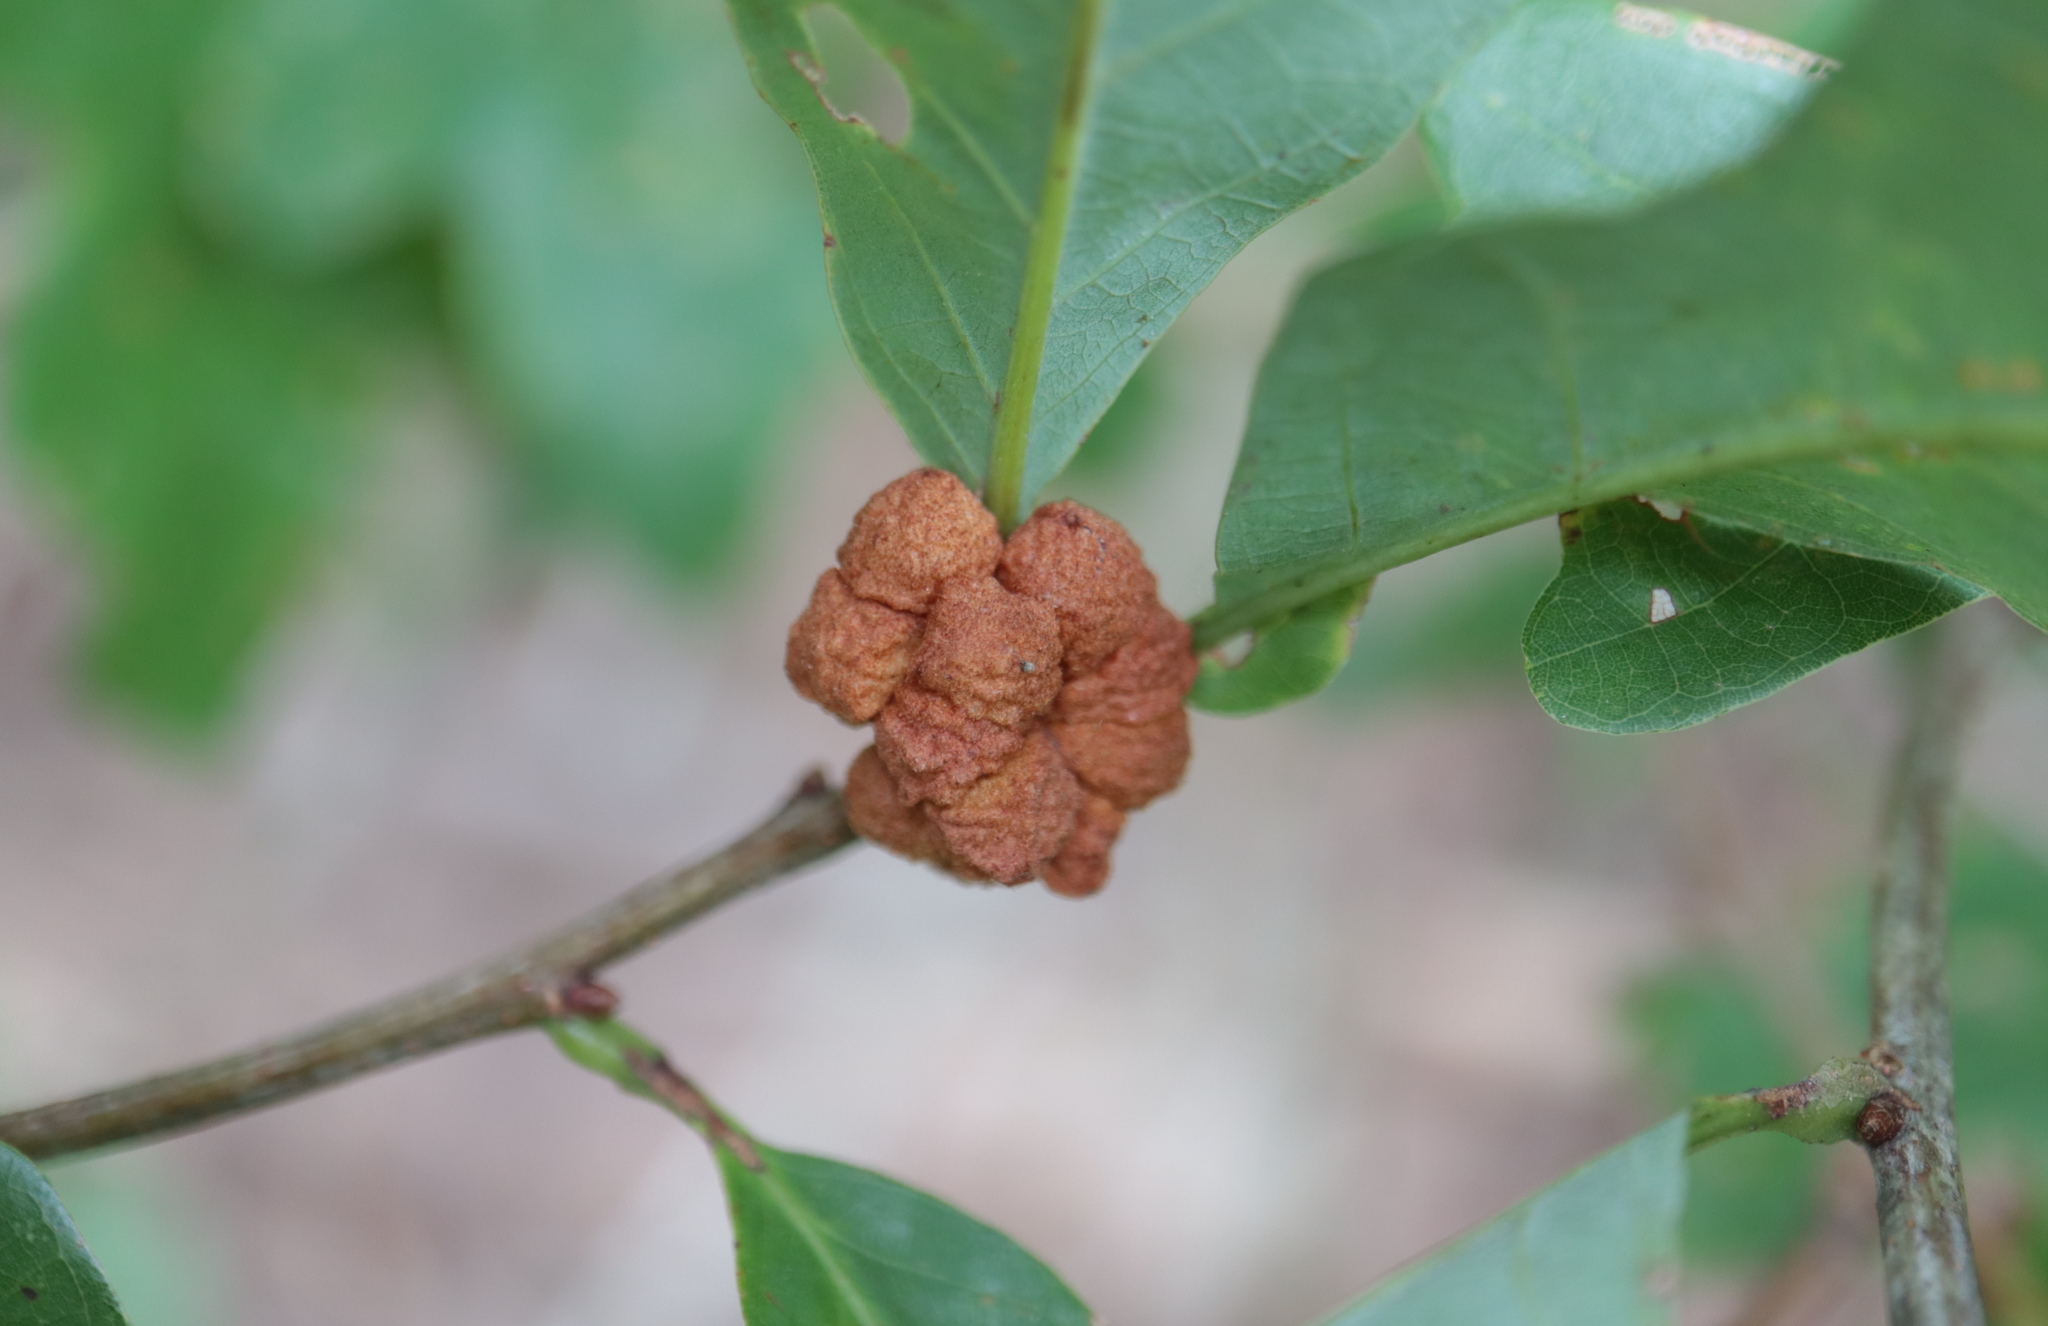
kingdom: Animalia
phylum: Arthropoda
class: Insecta
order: Hymenoptera
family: Cynipidae
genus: Andricus
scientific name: Andricus
